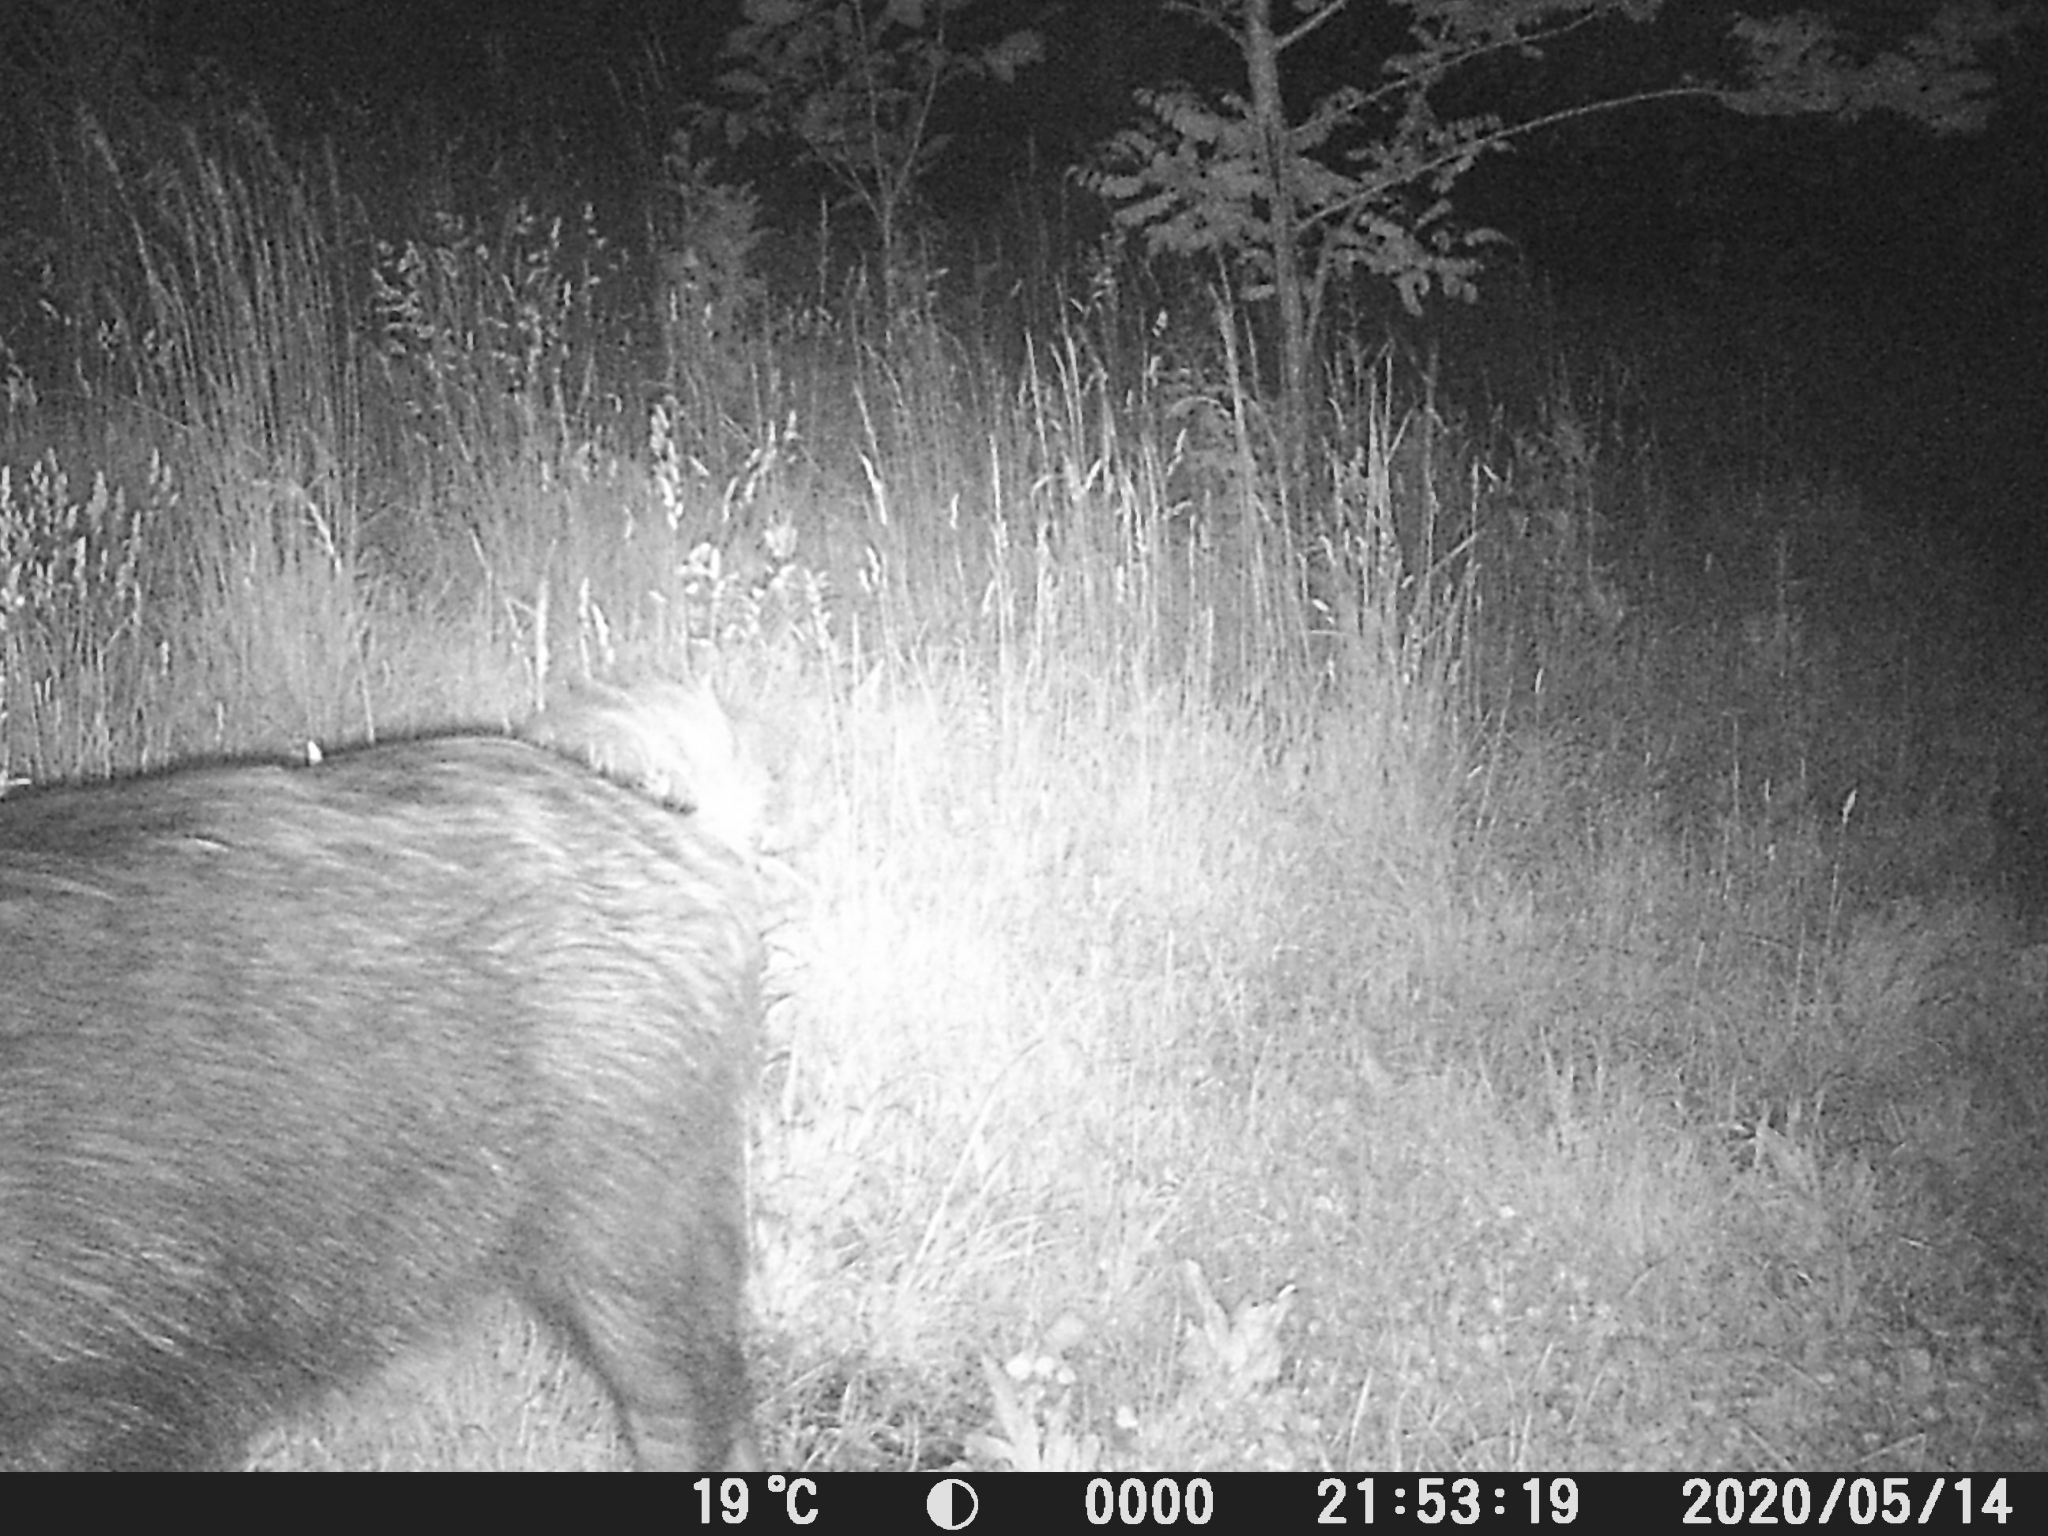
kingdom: Animalia
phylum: Chordata
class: Mammalia
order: Artiodactyla
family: Suidae
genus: Sus
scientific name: Sus scrofa
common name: Wild boar
